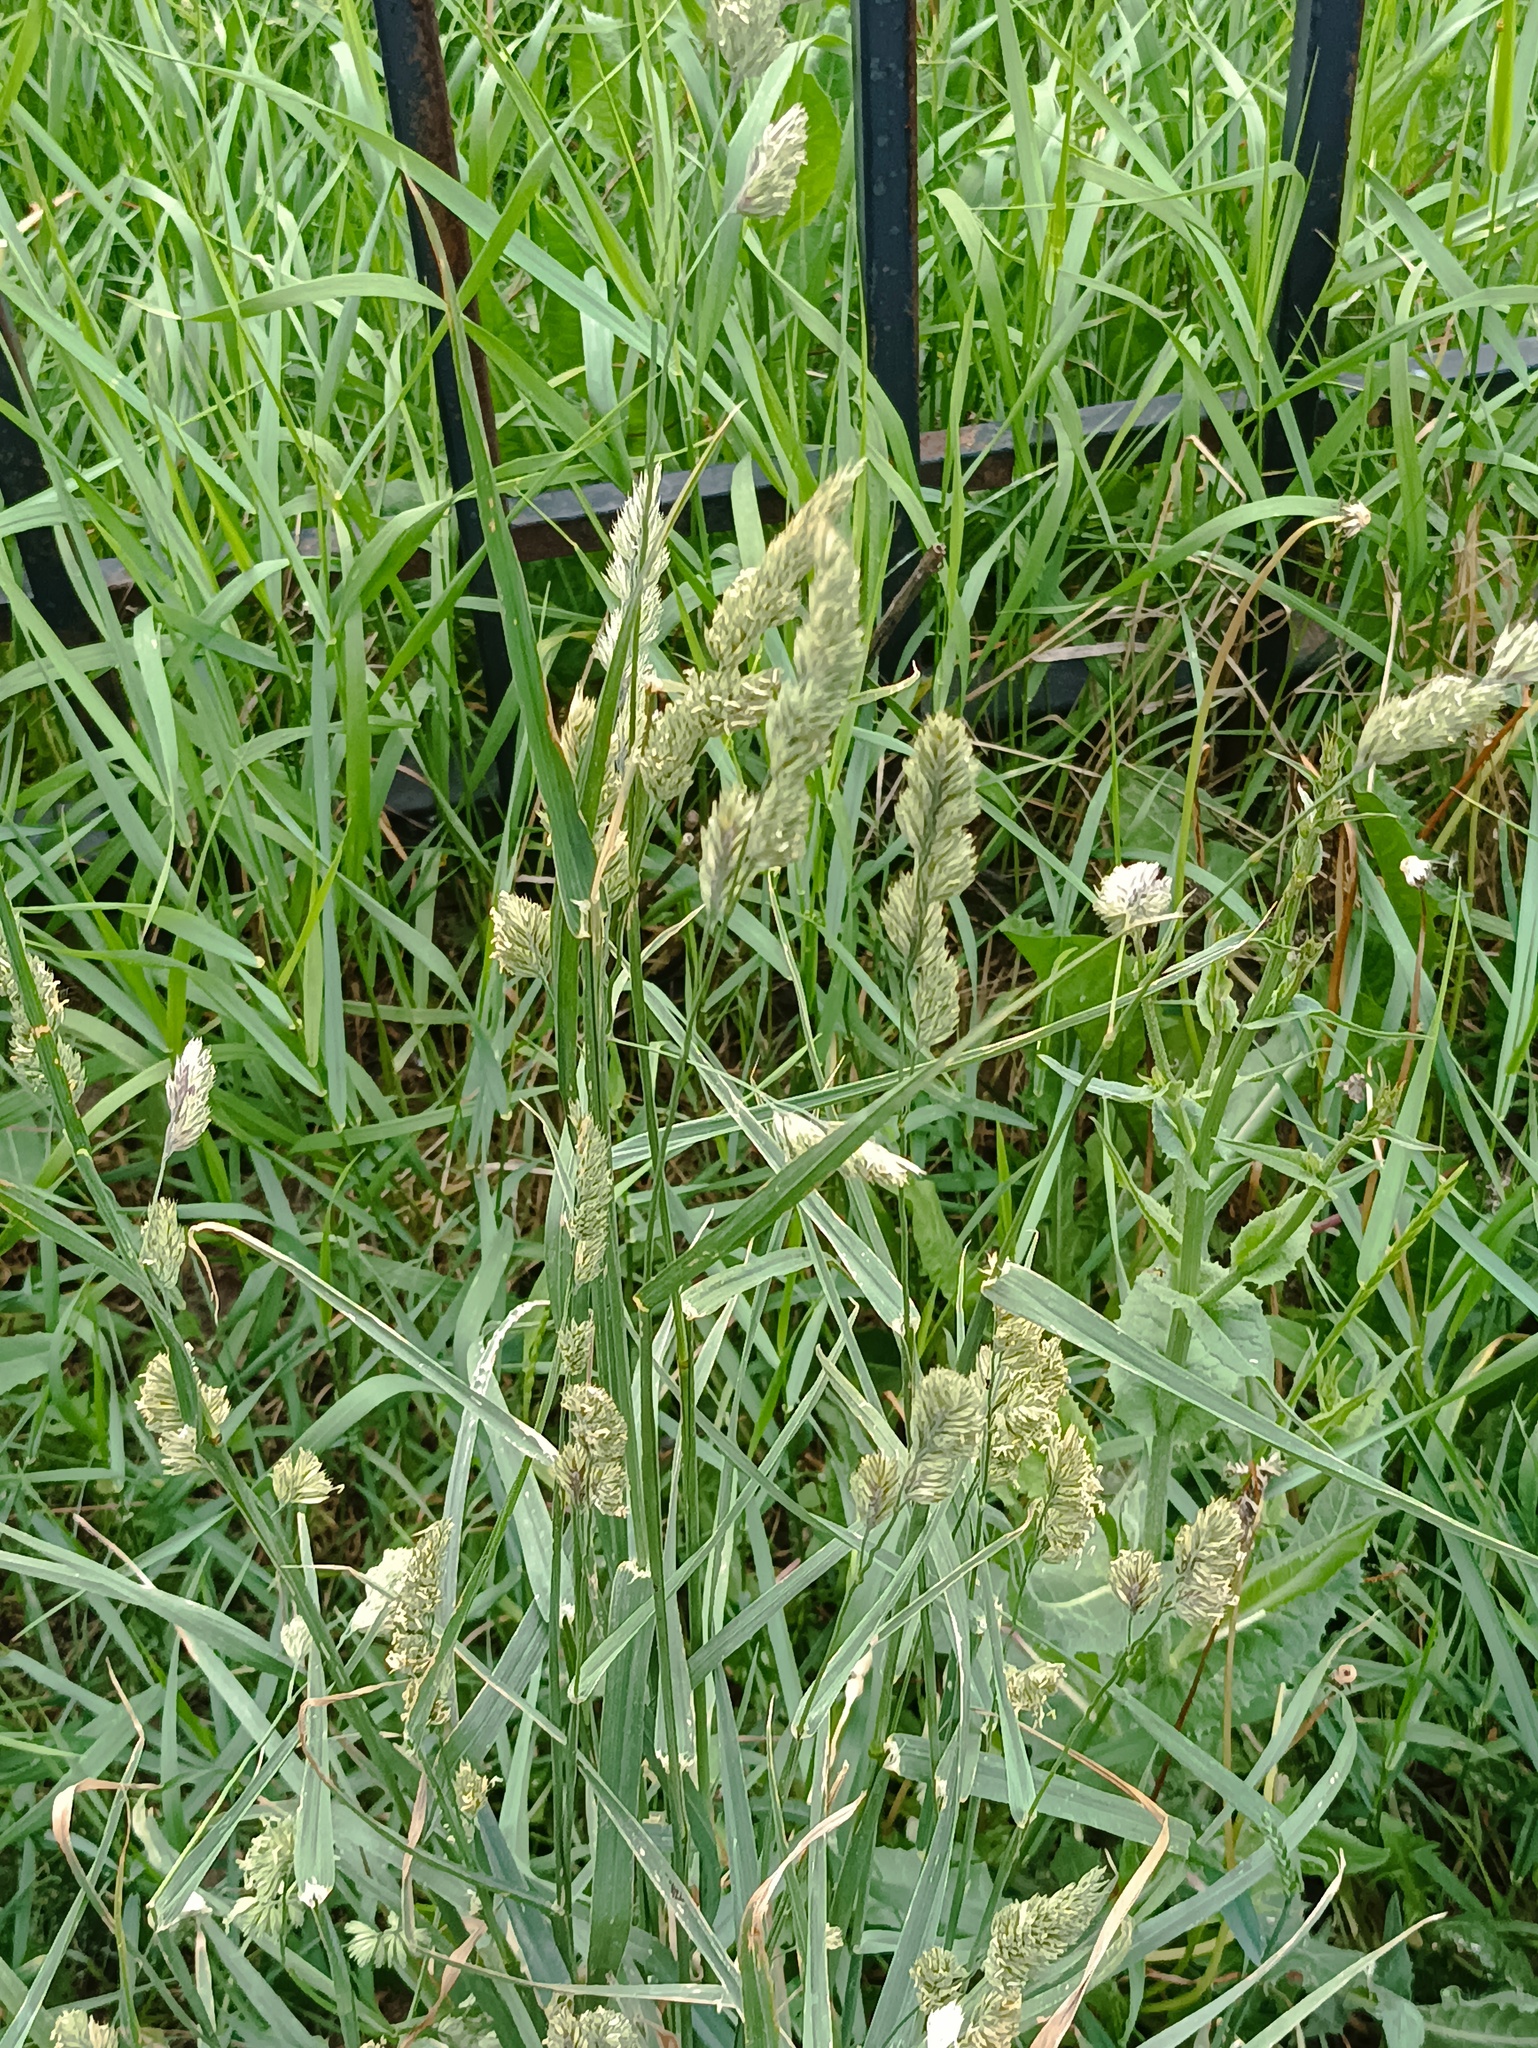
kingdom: Plantae
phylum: Tracheophyta
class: Liliopsida
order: Poales
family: Poaceae
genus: Dactylis
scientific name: Dactylis glomerata
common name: Orchardgrass
